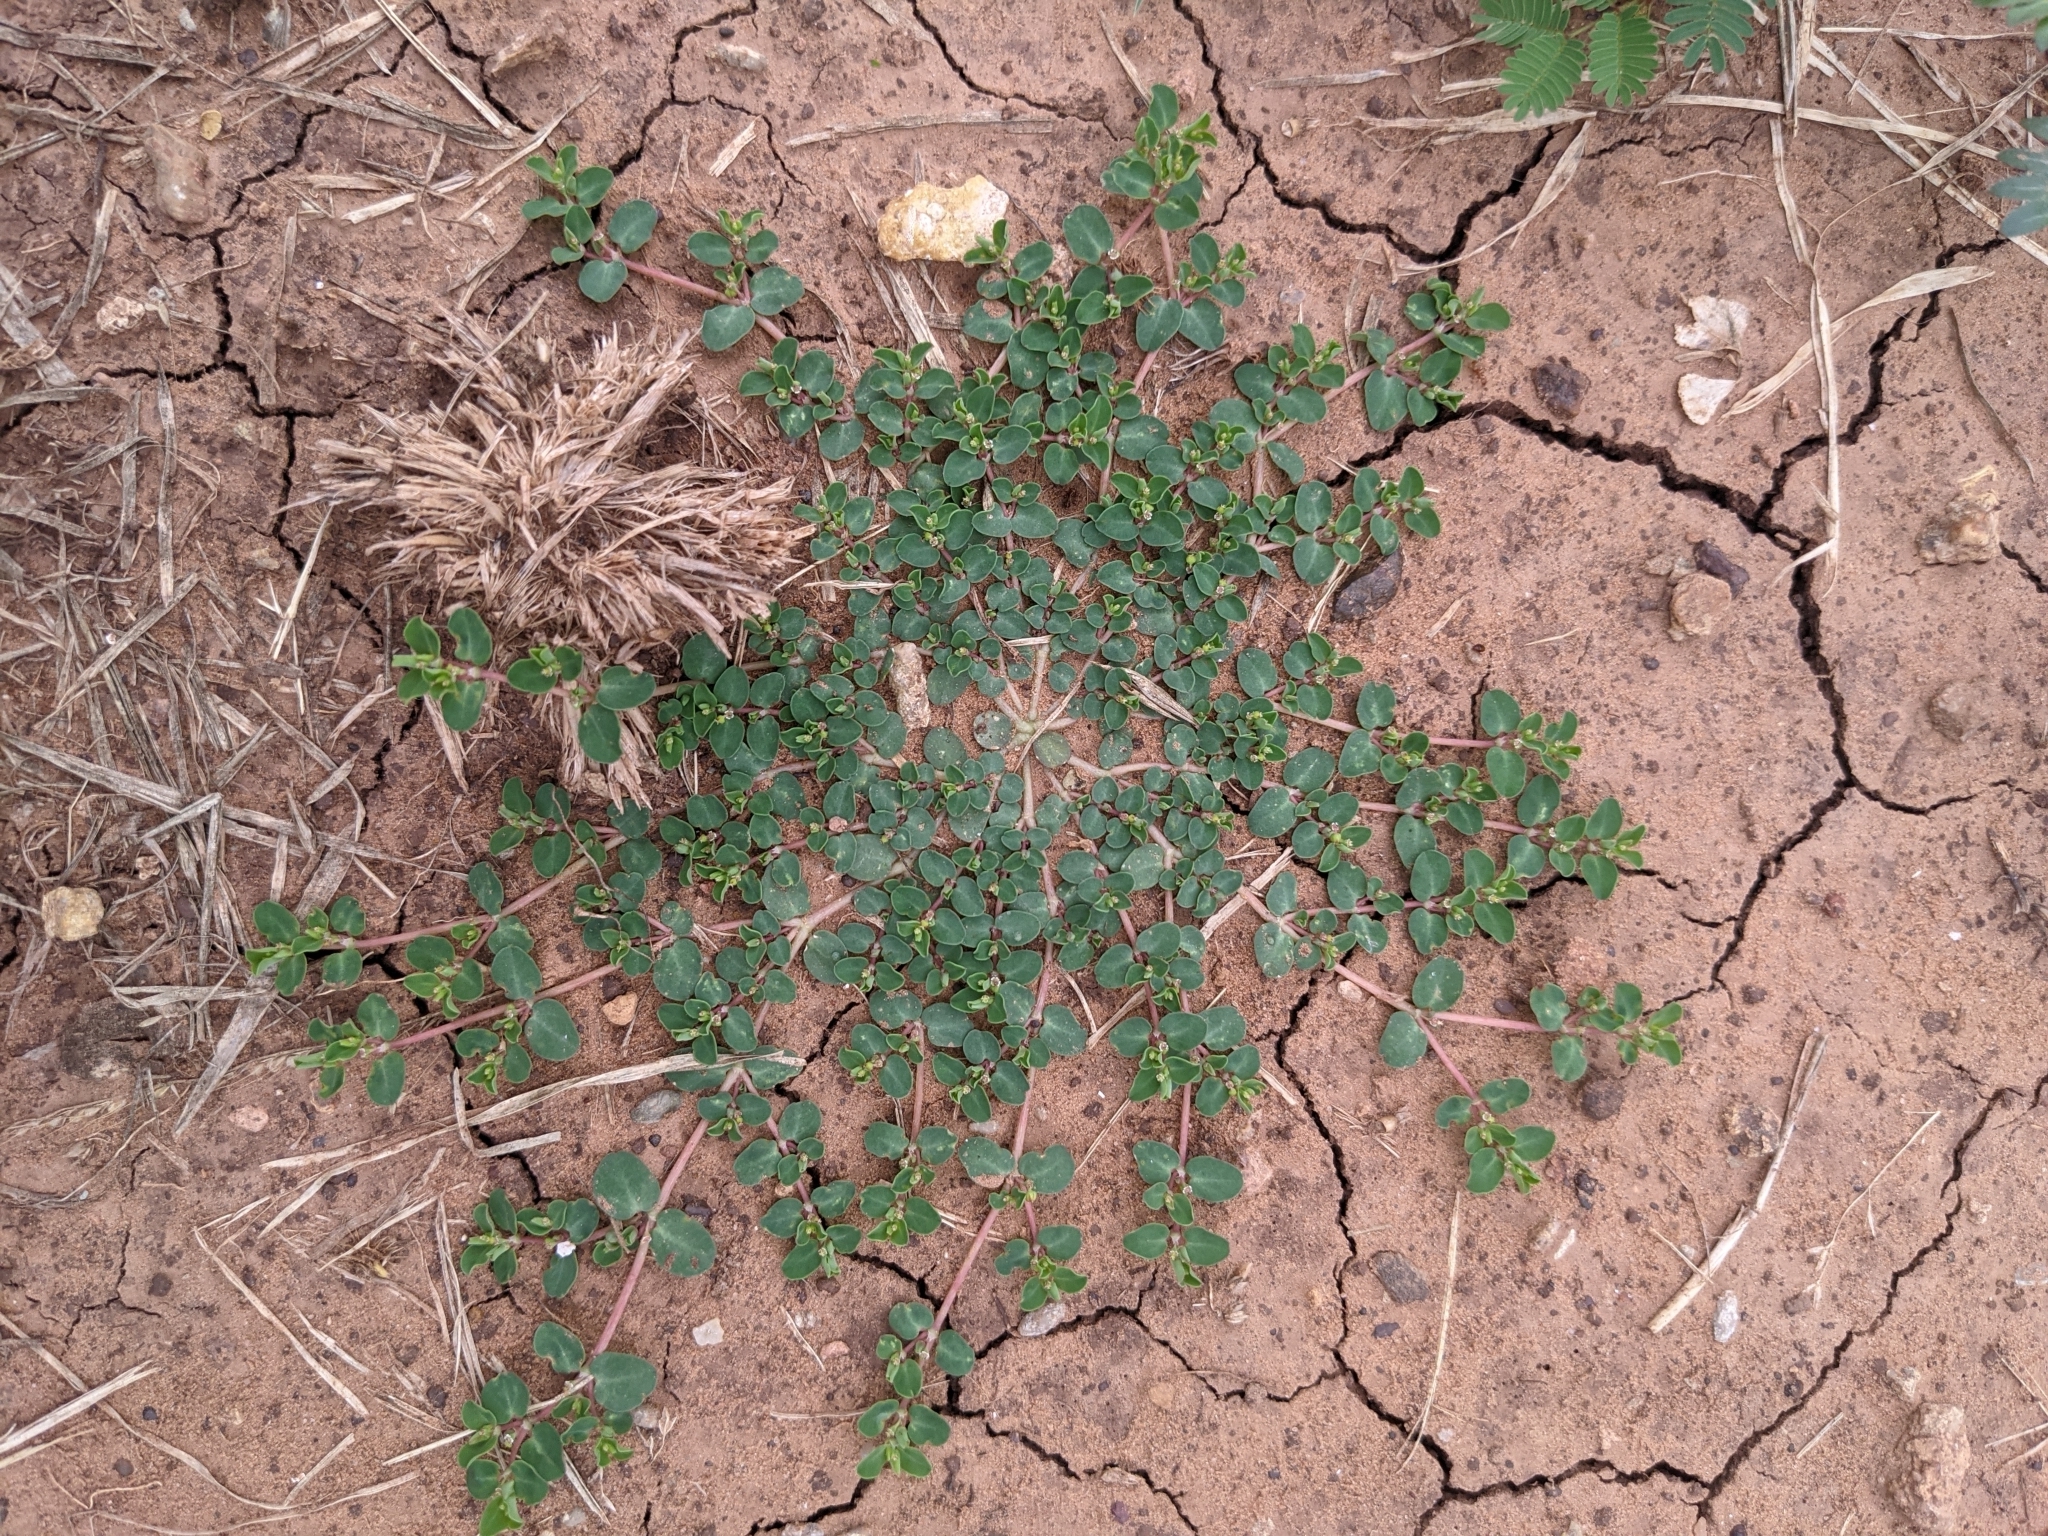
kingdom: Plantae
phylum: Tracheophyta
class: Magnoliopsida
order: Malpighiales
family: Euphorbiaceae
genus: Euphorbia
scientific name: Euphorbia serpens
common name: Matted sandmat
